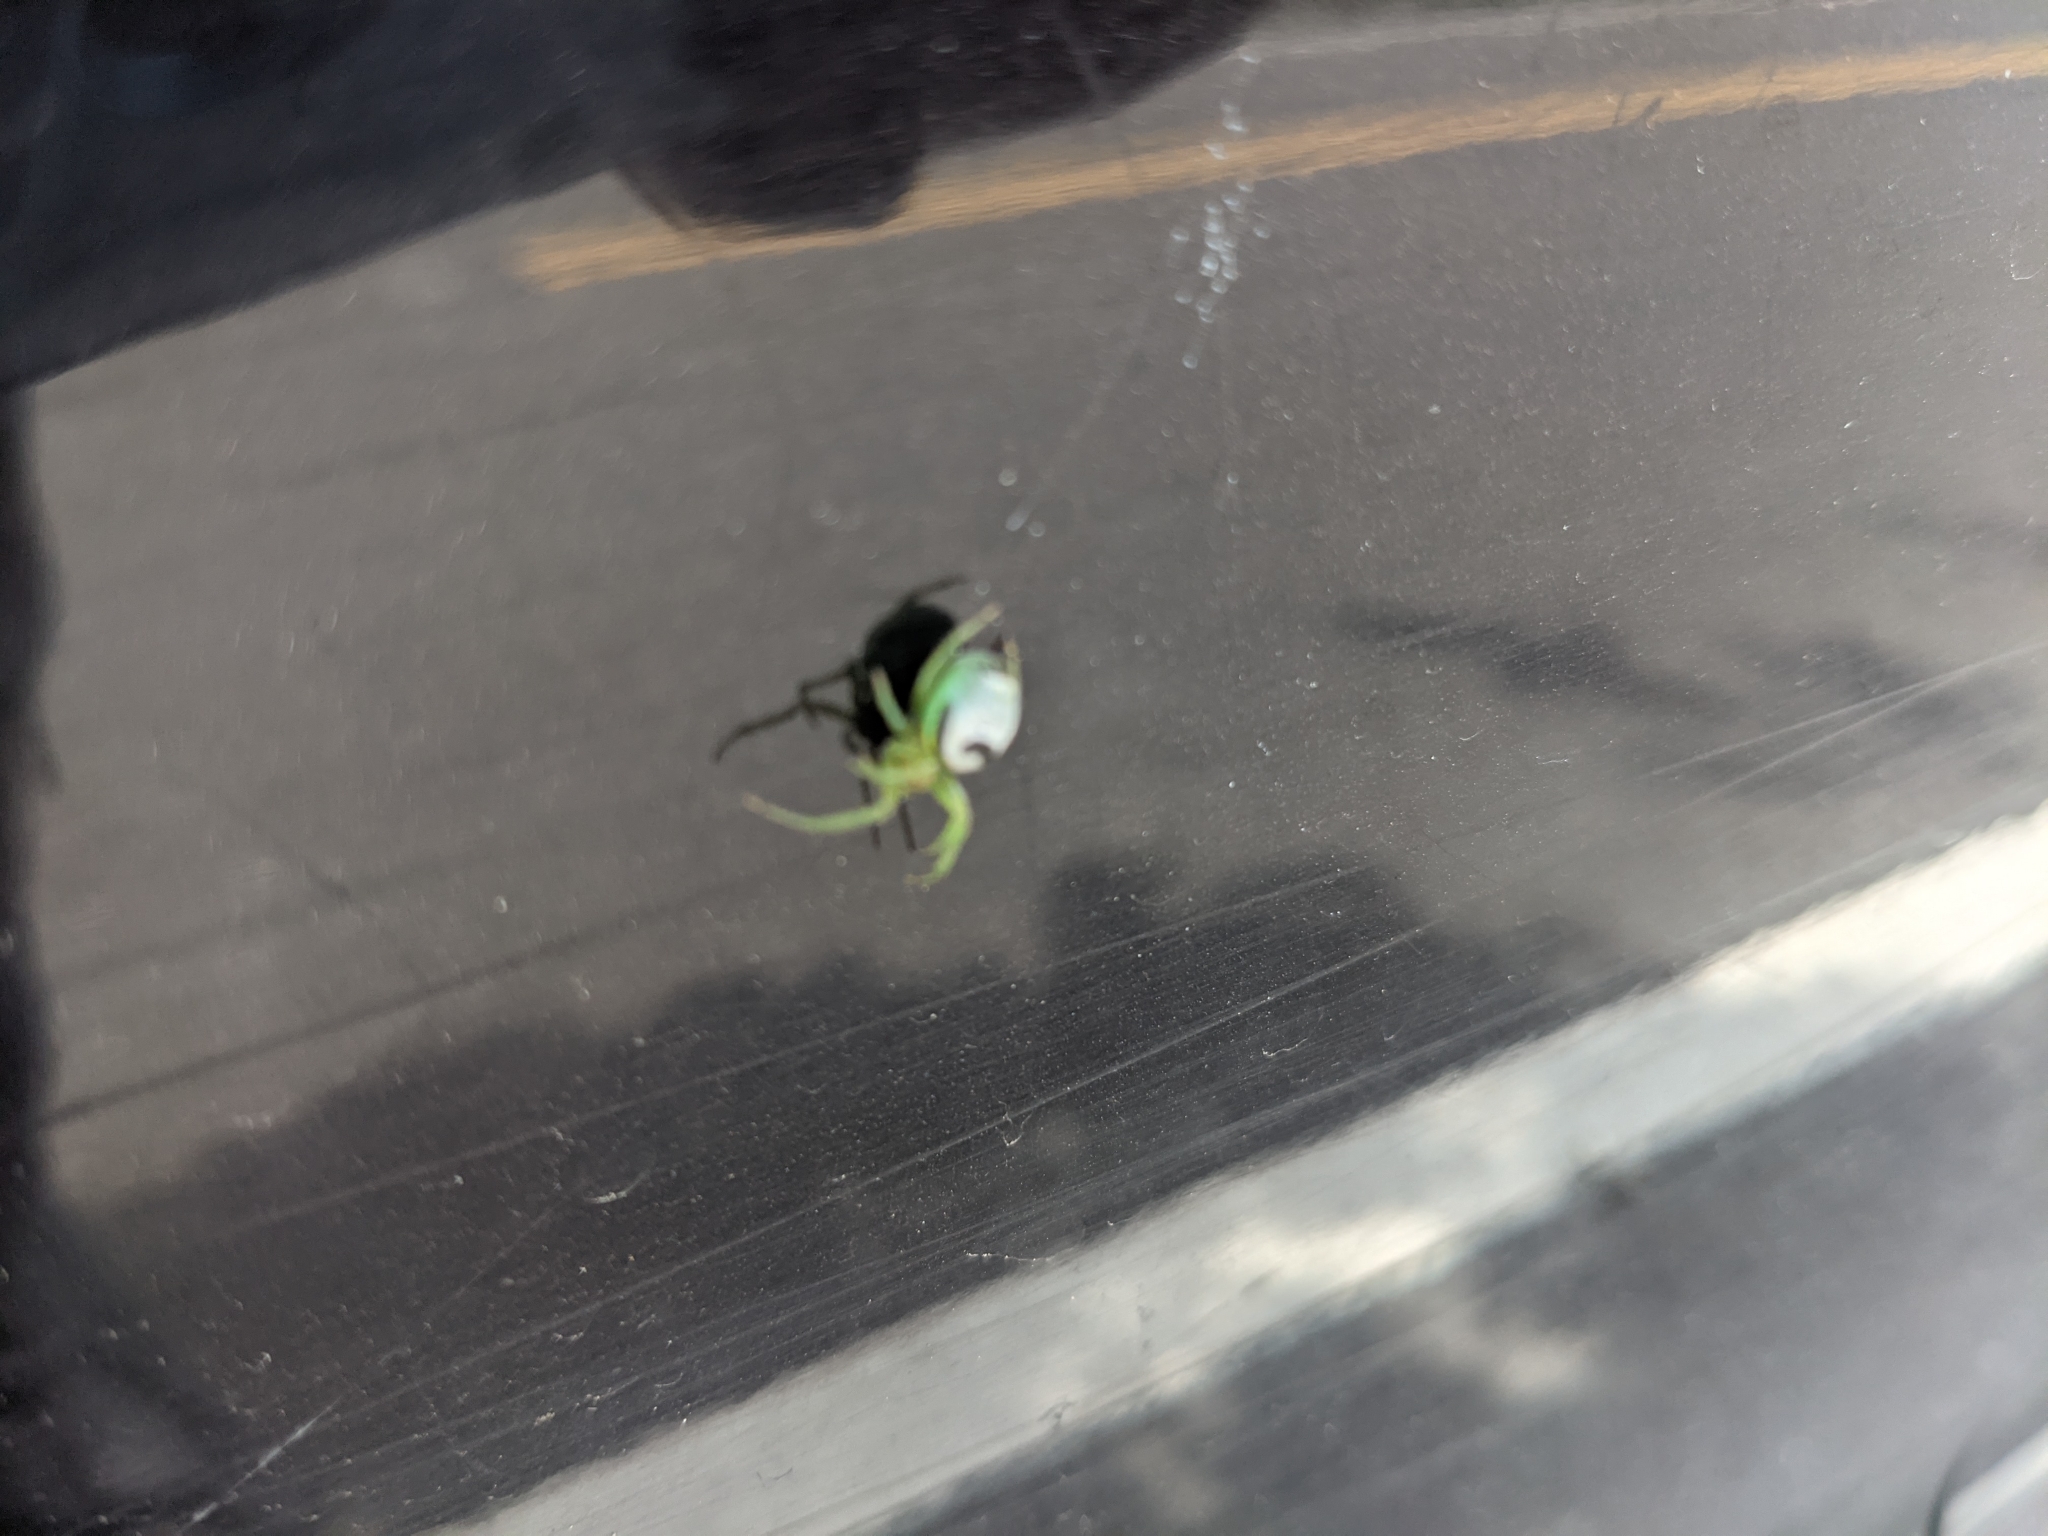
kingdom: Animalia
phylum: Arthropoda
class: Arachnida
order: Araneae
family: Araneidae
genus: Bijoaraneus
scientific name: Bijoaraneus mitificus
